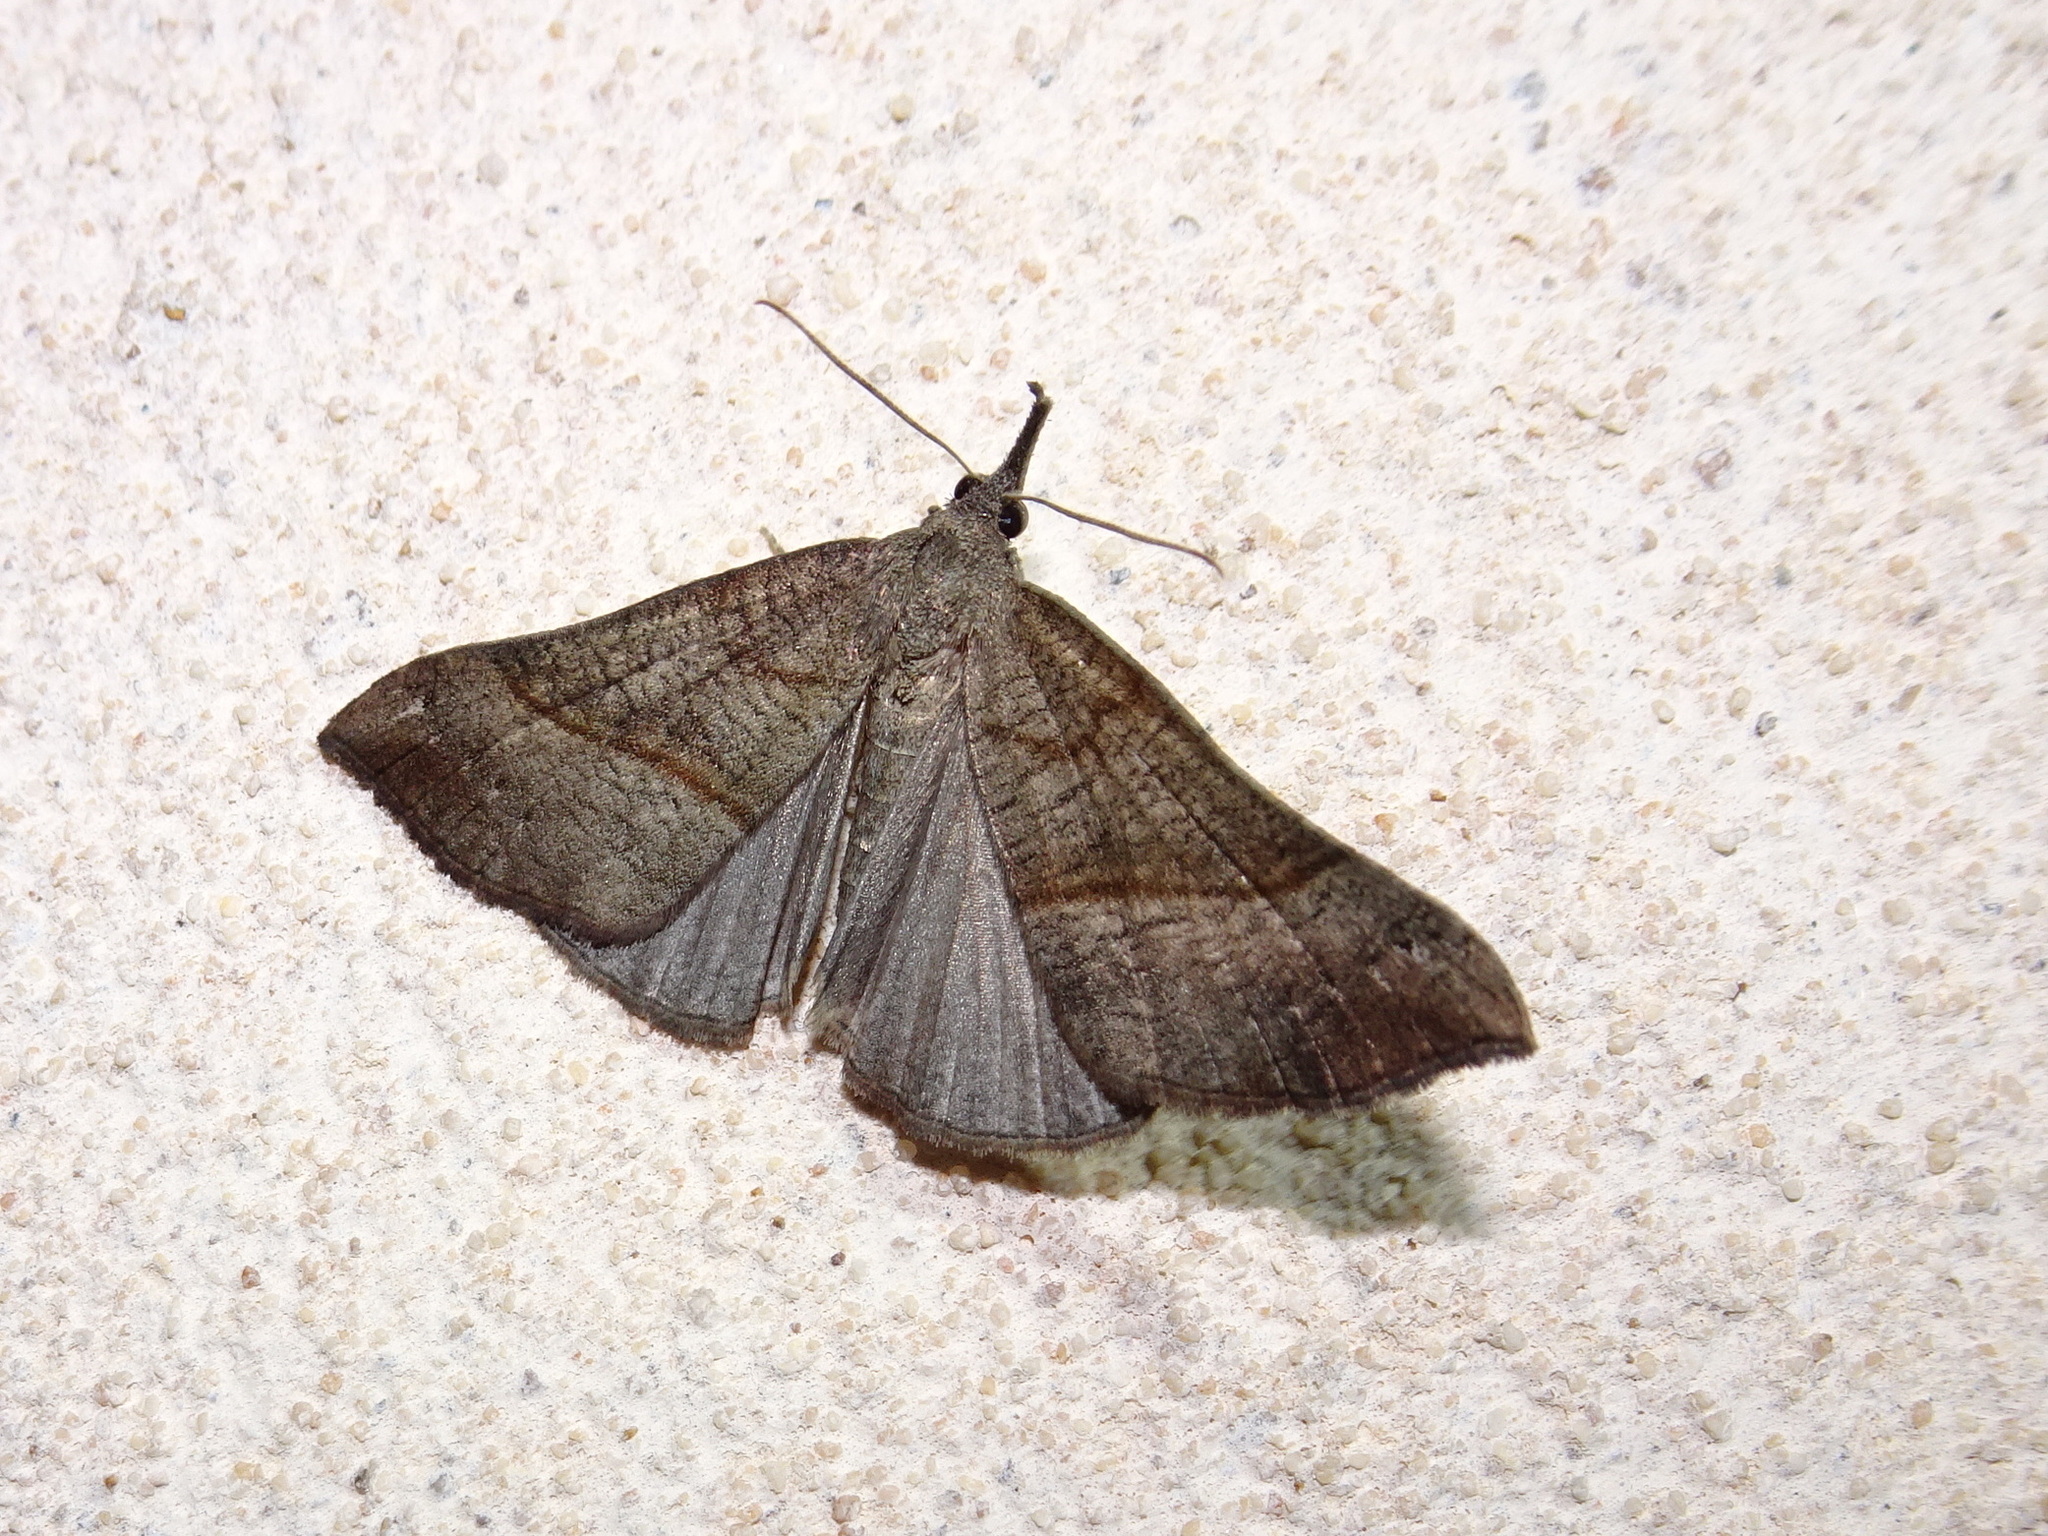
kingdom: Animalia
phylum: Arthropoda
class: Insecta
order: Lepidoptera
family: Erebidae
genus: Hypena
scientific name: Hypena proboscidalis
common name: Snout
